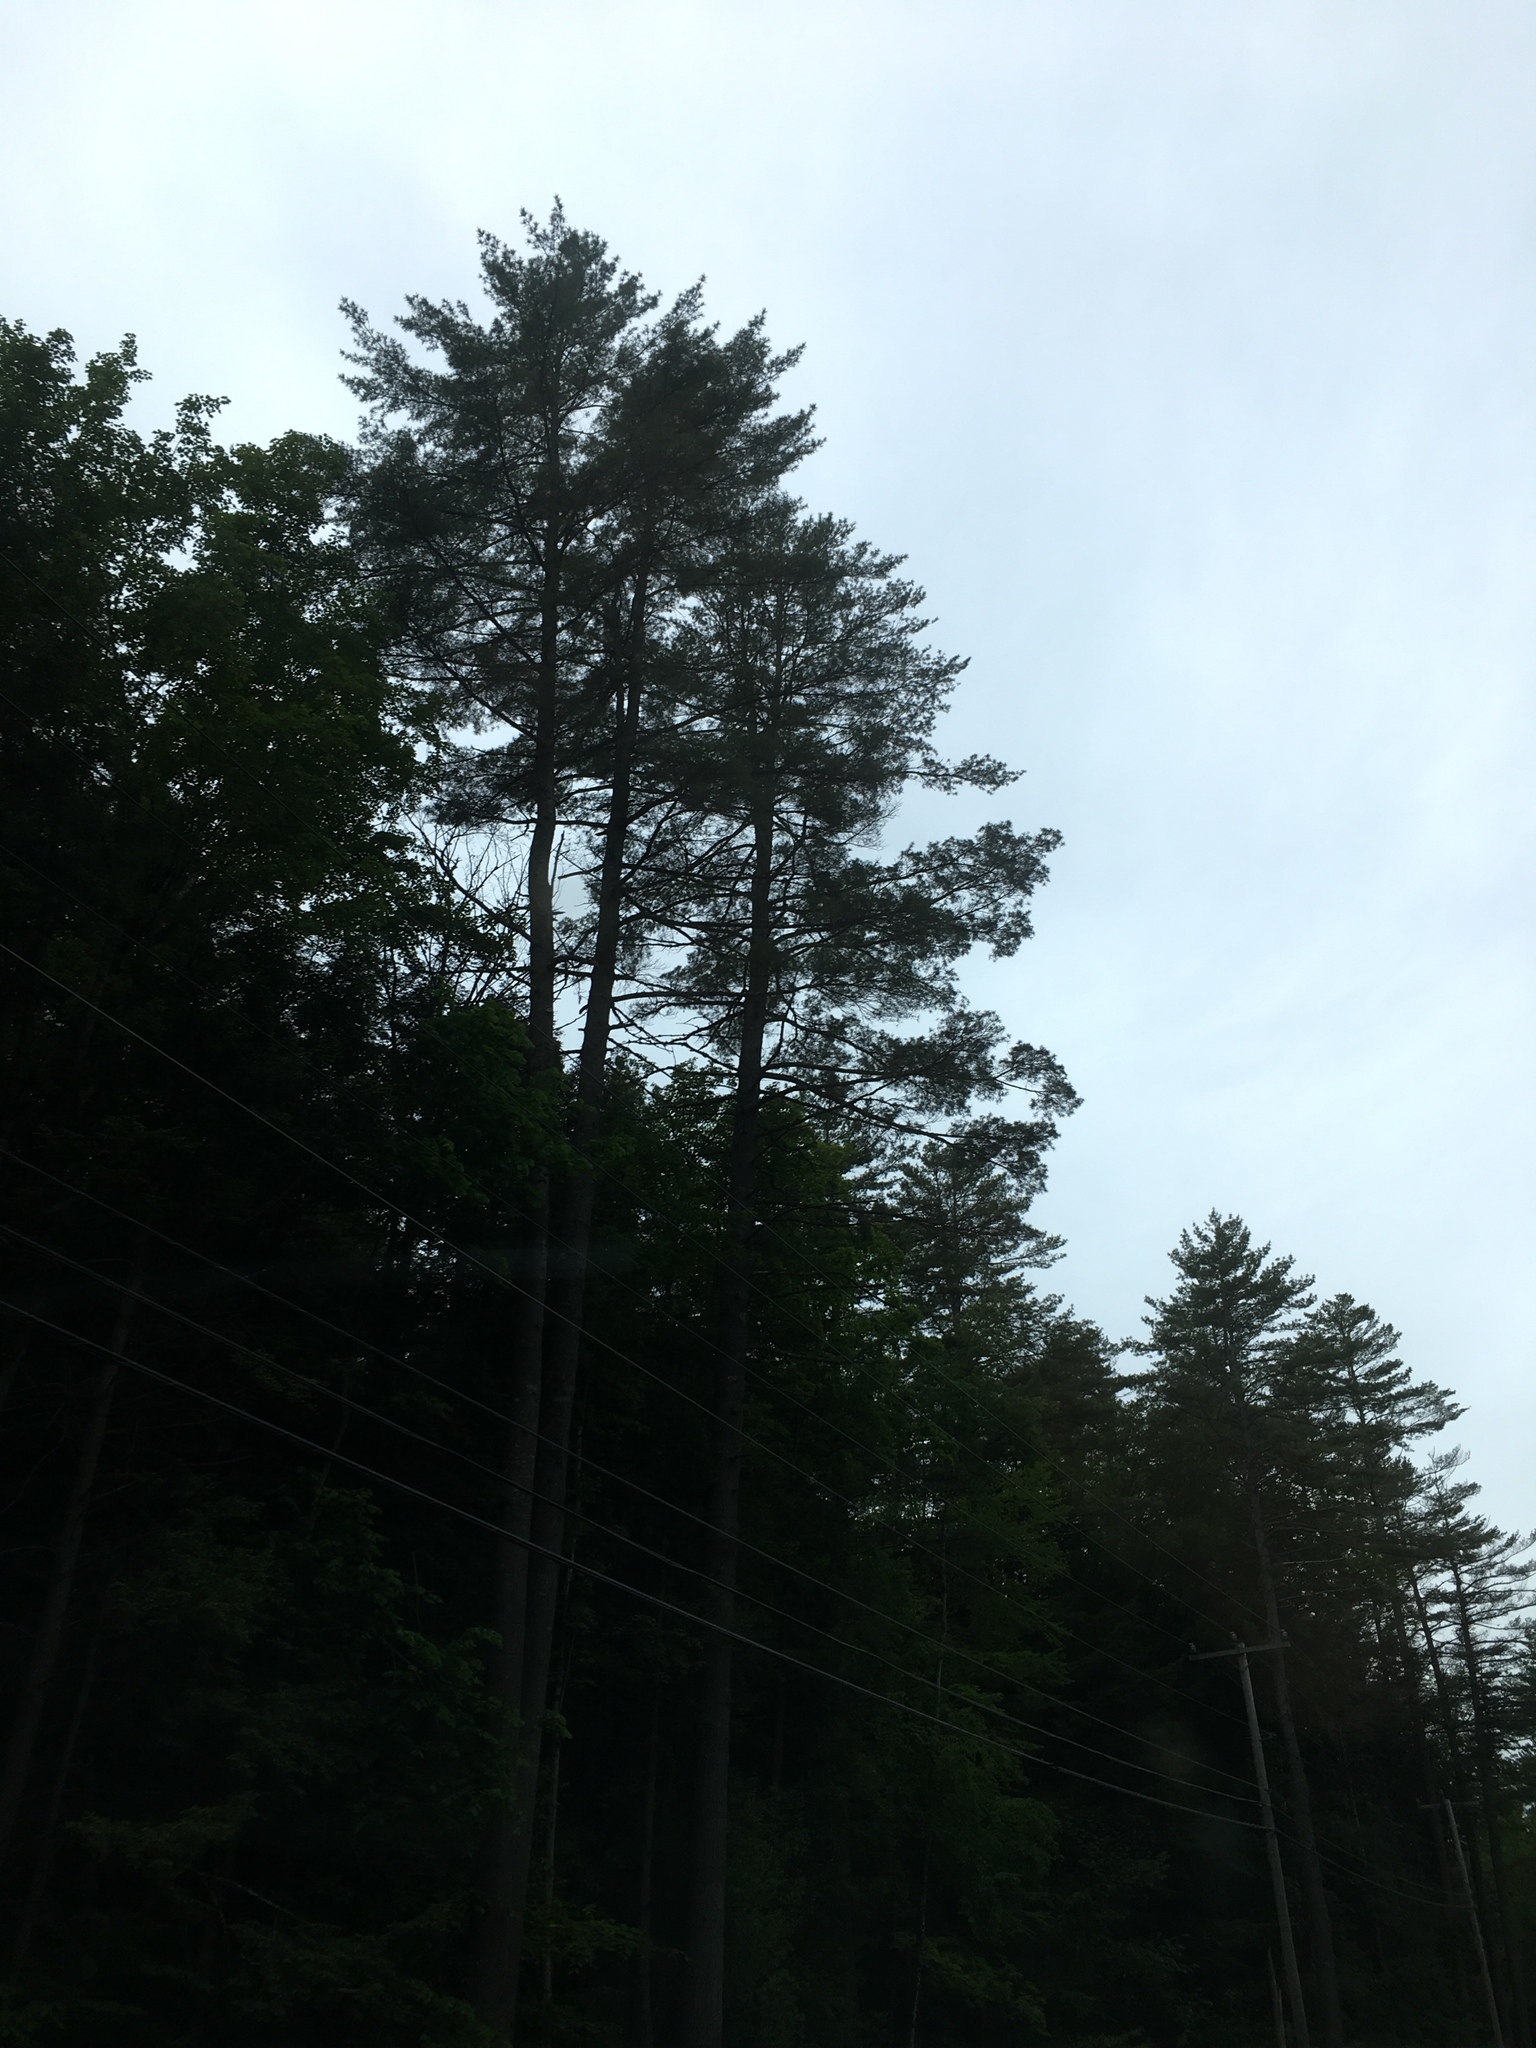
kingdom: Plantae
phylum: Tracheophyta
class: Pinopsida
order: Pinales
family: Pinaceae
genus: Pinus
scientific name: Pinus strobus
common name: Weymouth pine
